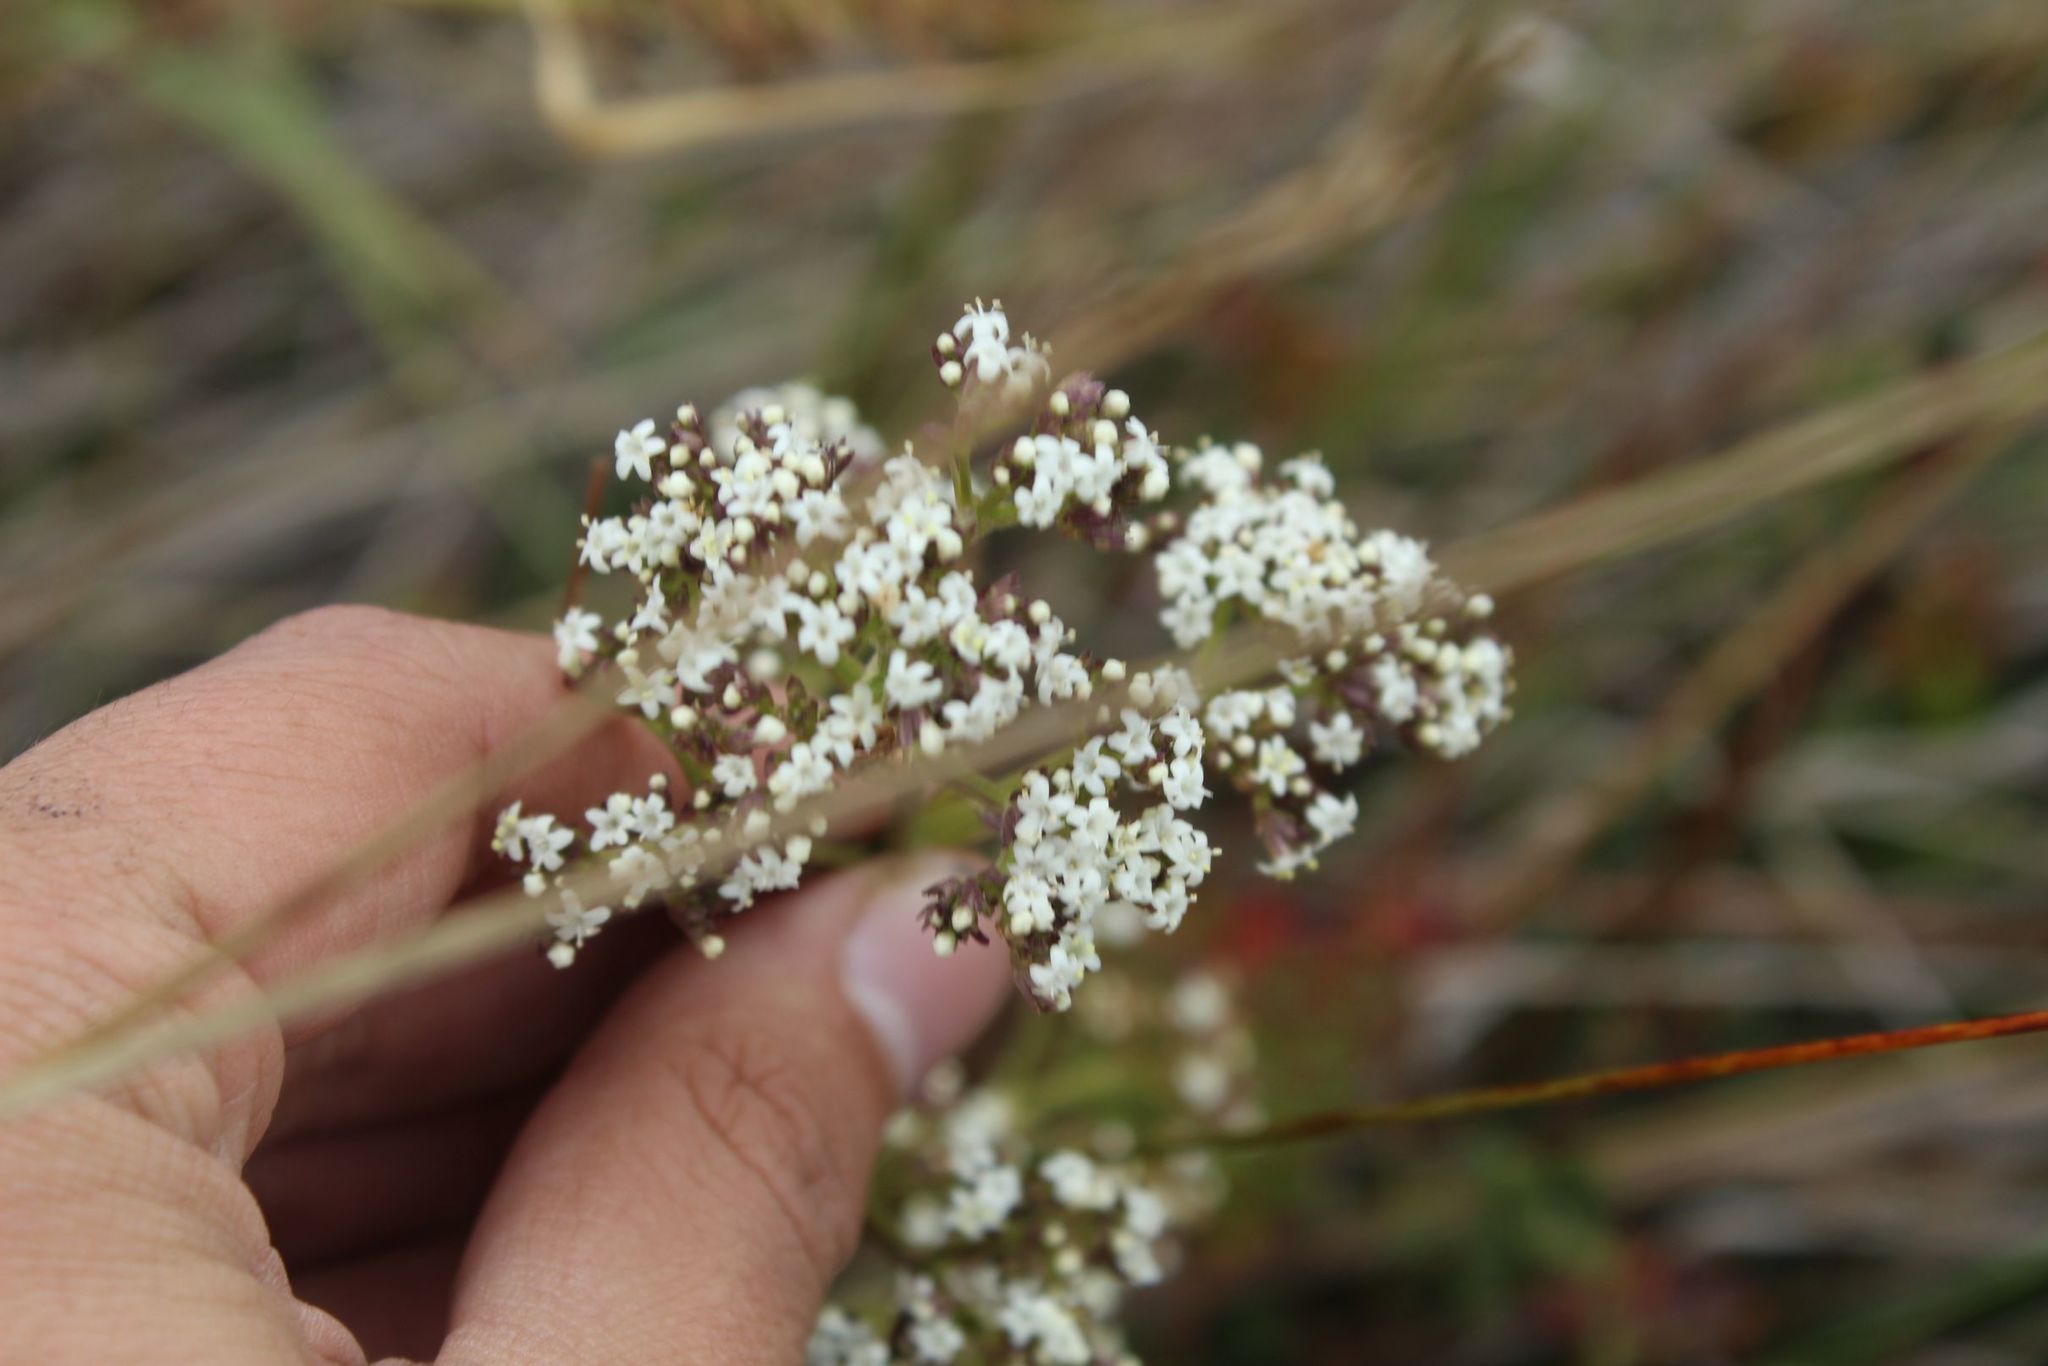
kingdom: Plantae
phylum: Tracheophyta
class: Magnoliopsida
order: Dipsacales
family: Caprifoliaceae
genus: Valeriana
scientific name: Valeriana pilosa
